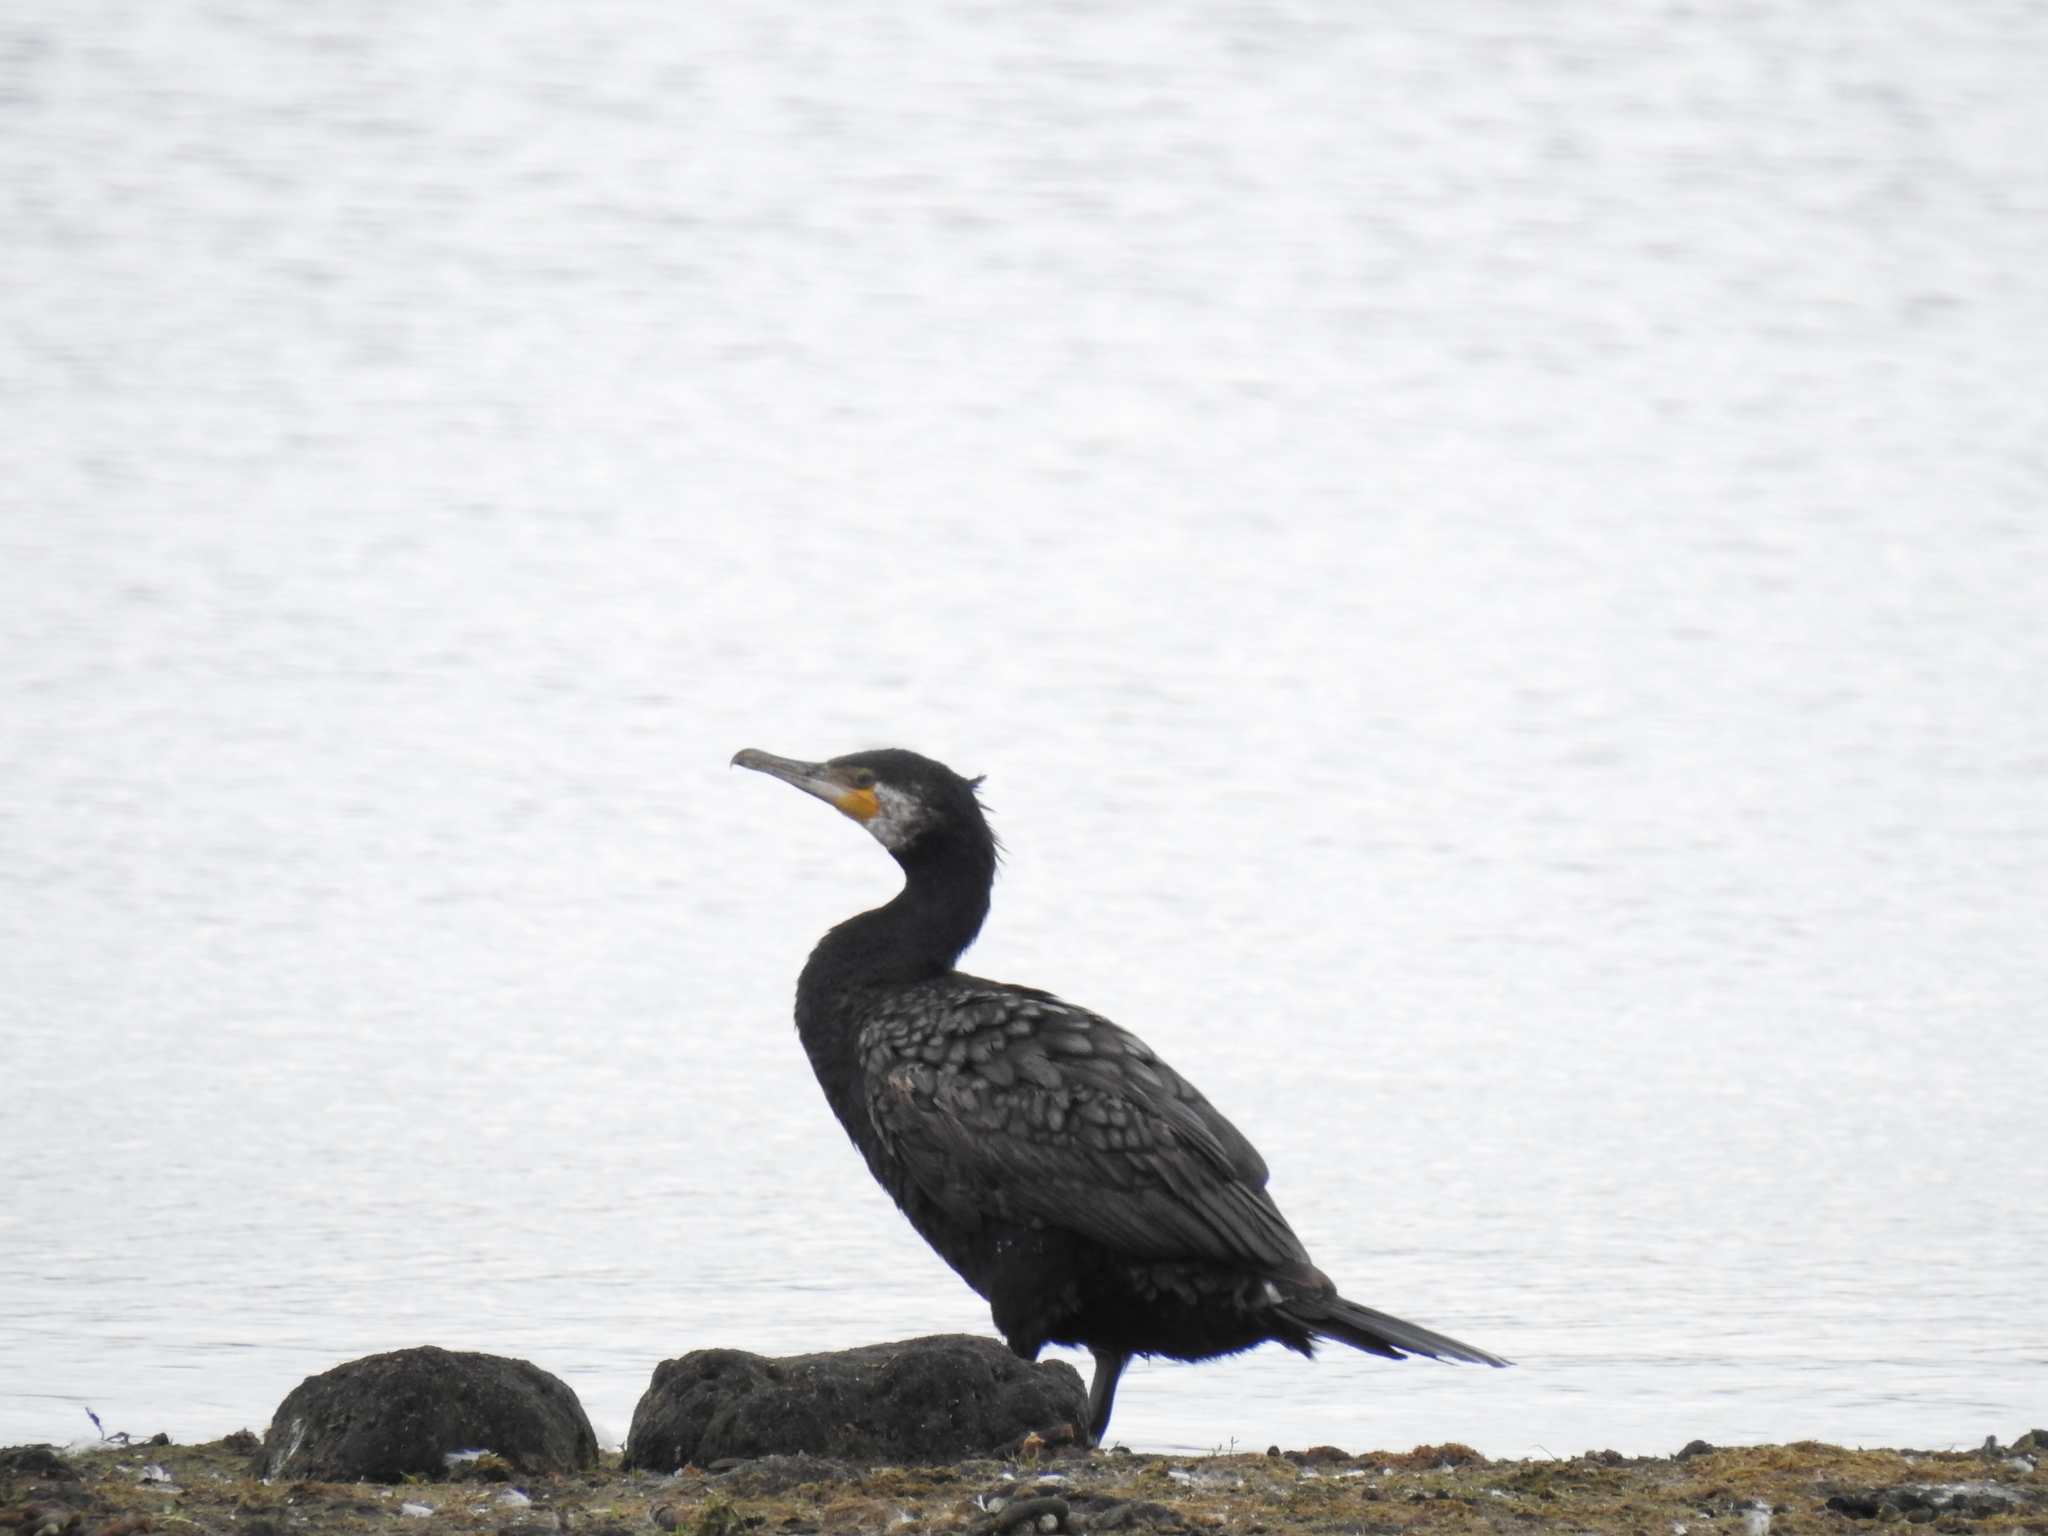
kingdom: Animalia
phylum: Chordata
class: Aves
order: Suliformes
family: Phalacrocoracidae
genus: Phalacrocorax
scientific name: Phalacrocorax carbo
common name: Great cormorant
